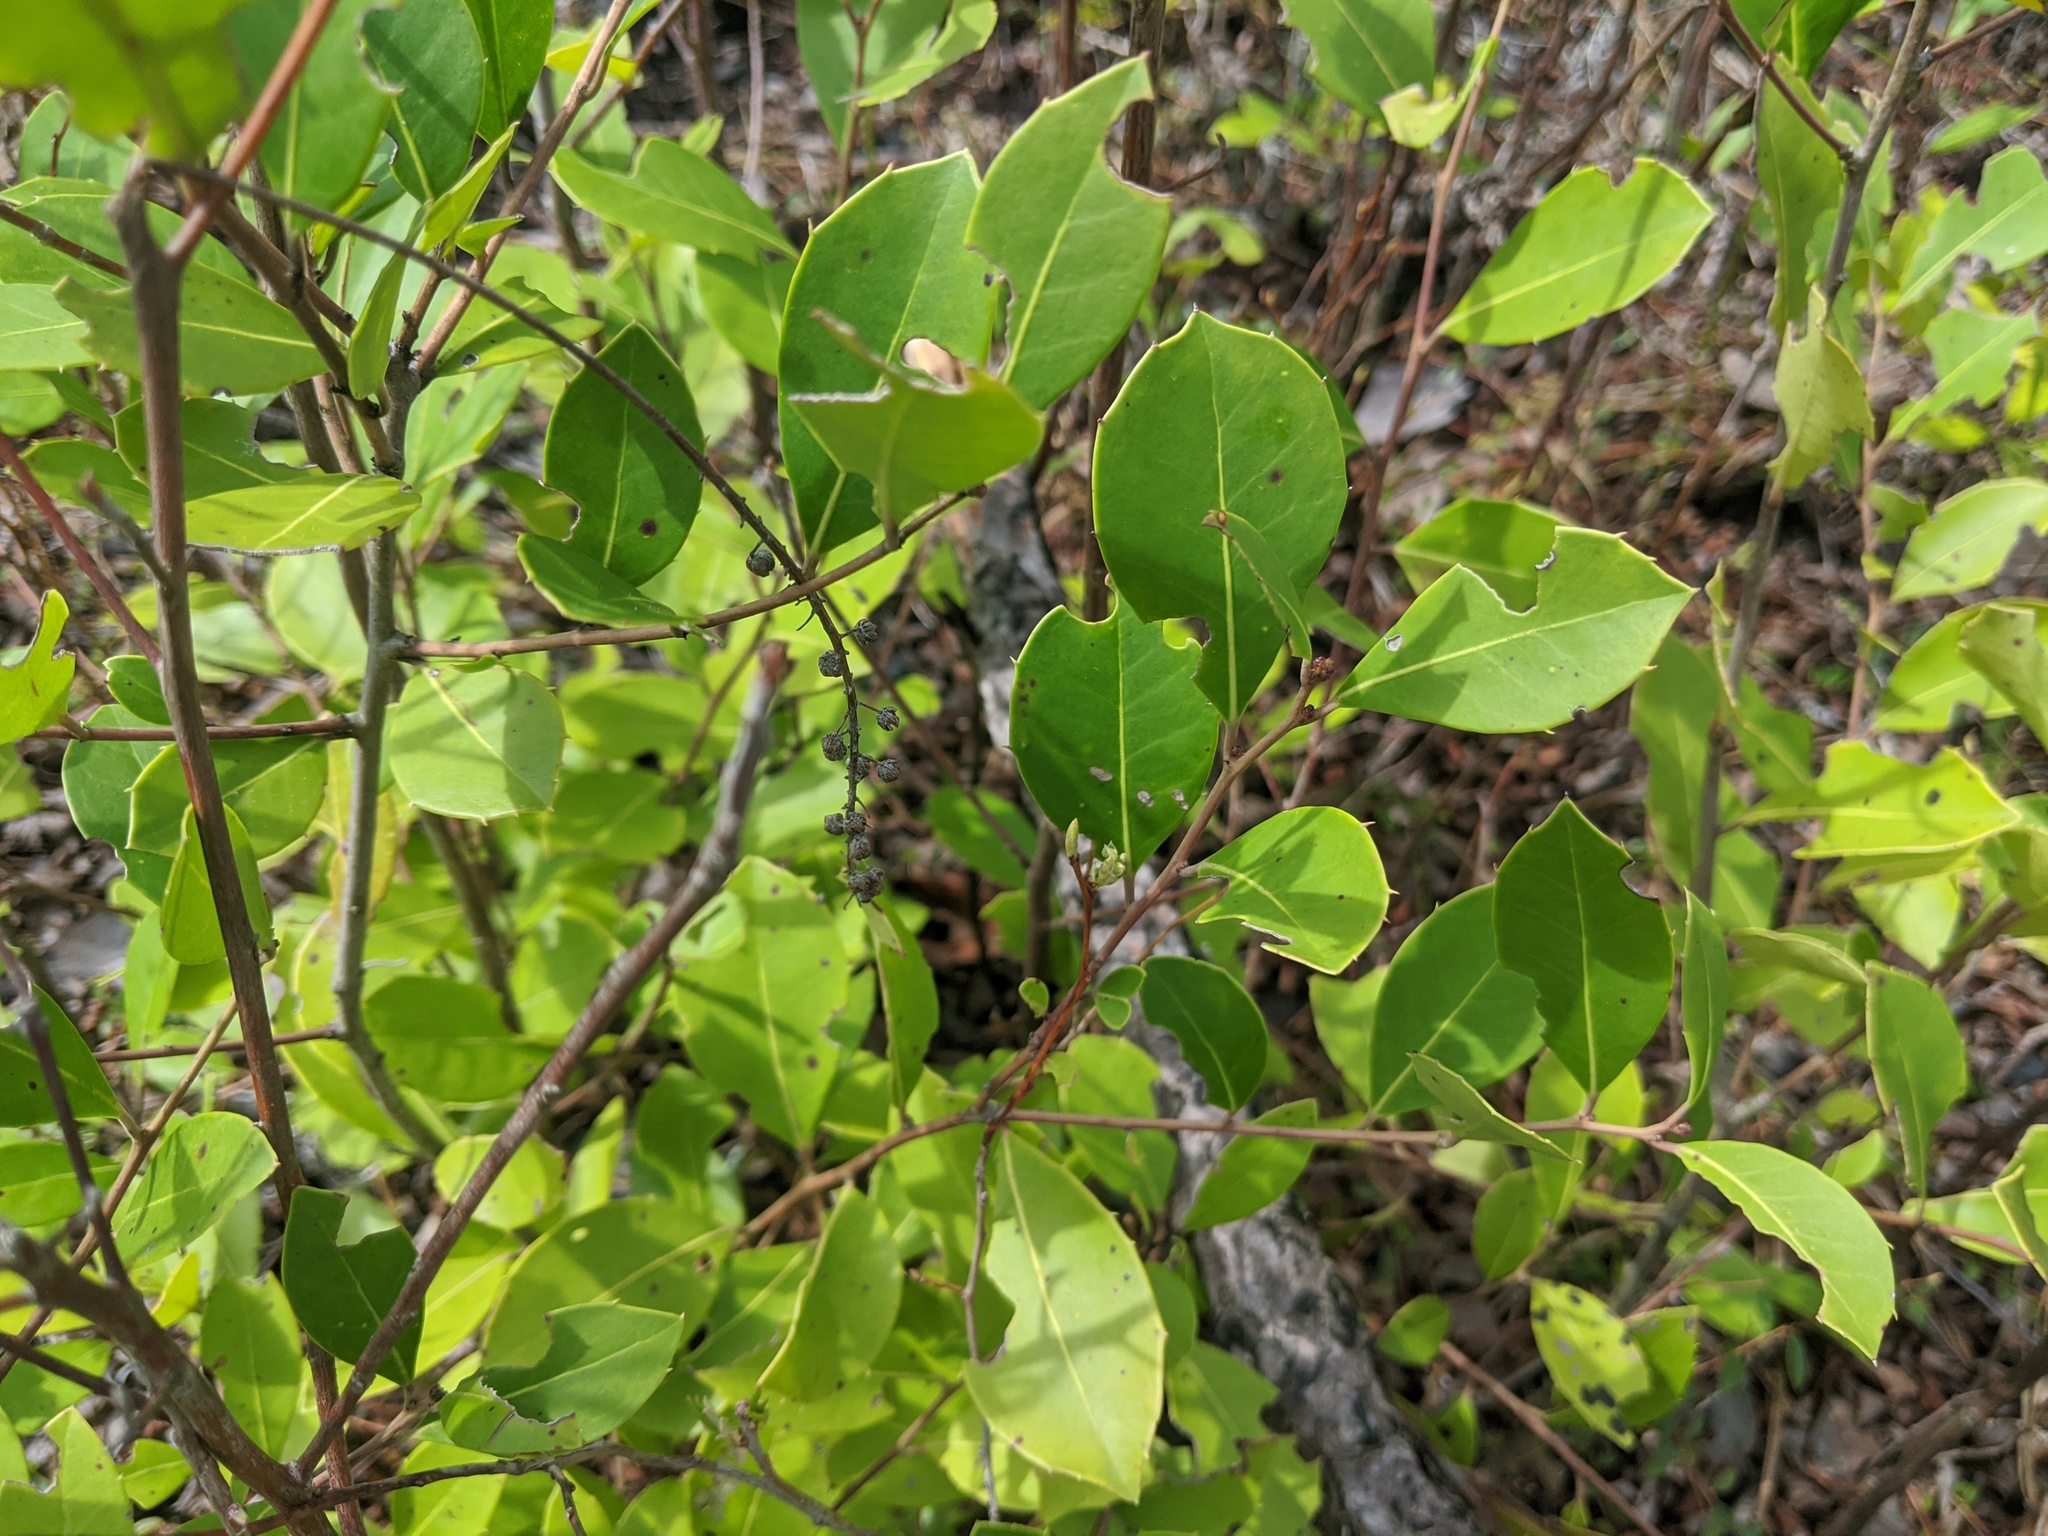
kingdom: Plantae
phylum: Tracheophyta
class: Magnoliopsida
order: Aquifoliales
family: Aquifoliaceae
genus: Ilex
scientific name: Ilex coriacea
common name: Sweet gallberry
